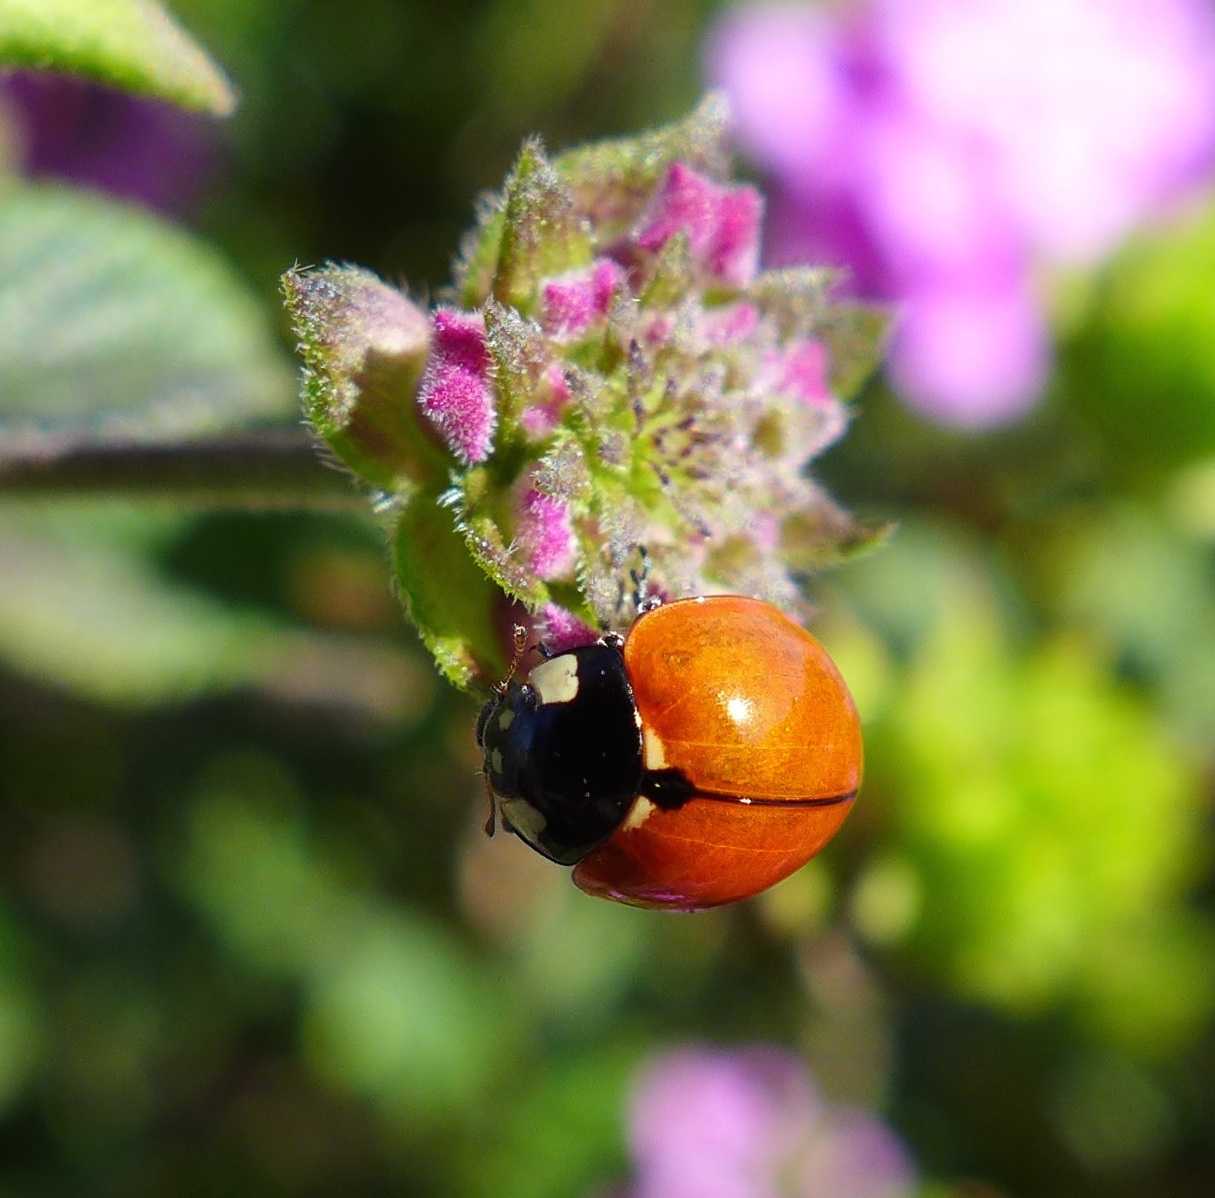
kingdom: Animalia
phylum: Arthropoda
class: Insecta
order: Coleoptera
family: Coccinellidae
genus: Coccinella
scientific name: Coccinella californica
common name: Lady beetle
